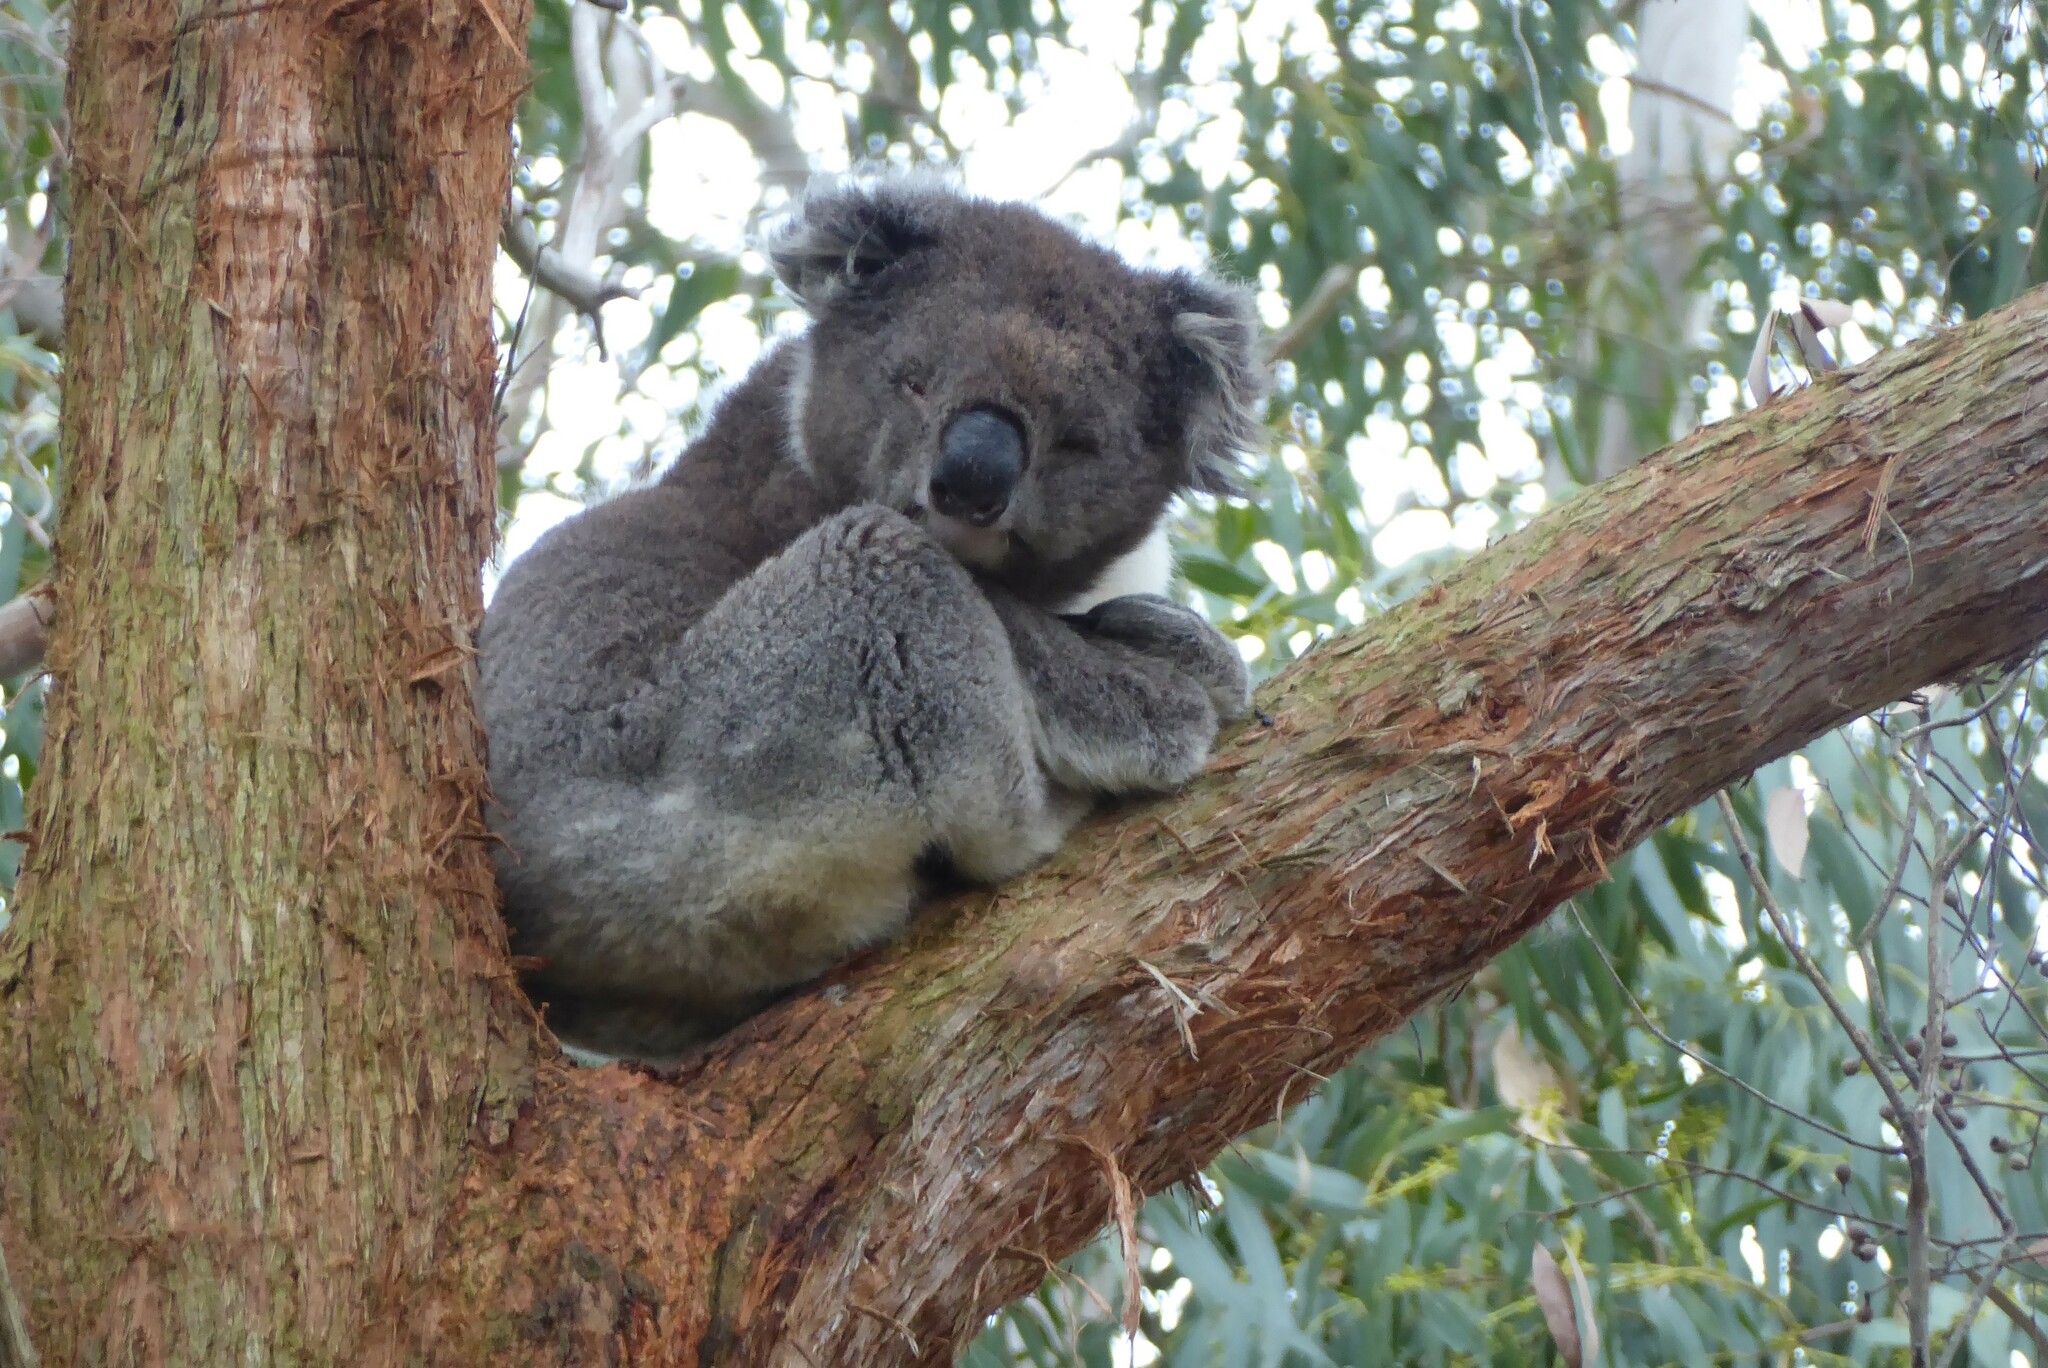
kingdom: Animalia
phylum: Chordata
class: Mammalia
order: Diprotodontia
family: Phascolarctidae
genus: Phascolarctos
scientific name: Phascolarctos cinereus
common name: Koala
